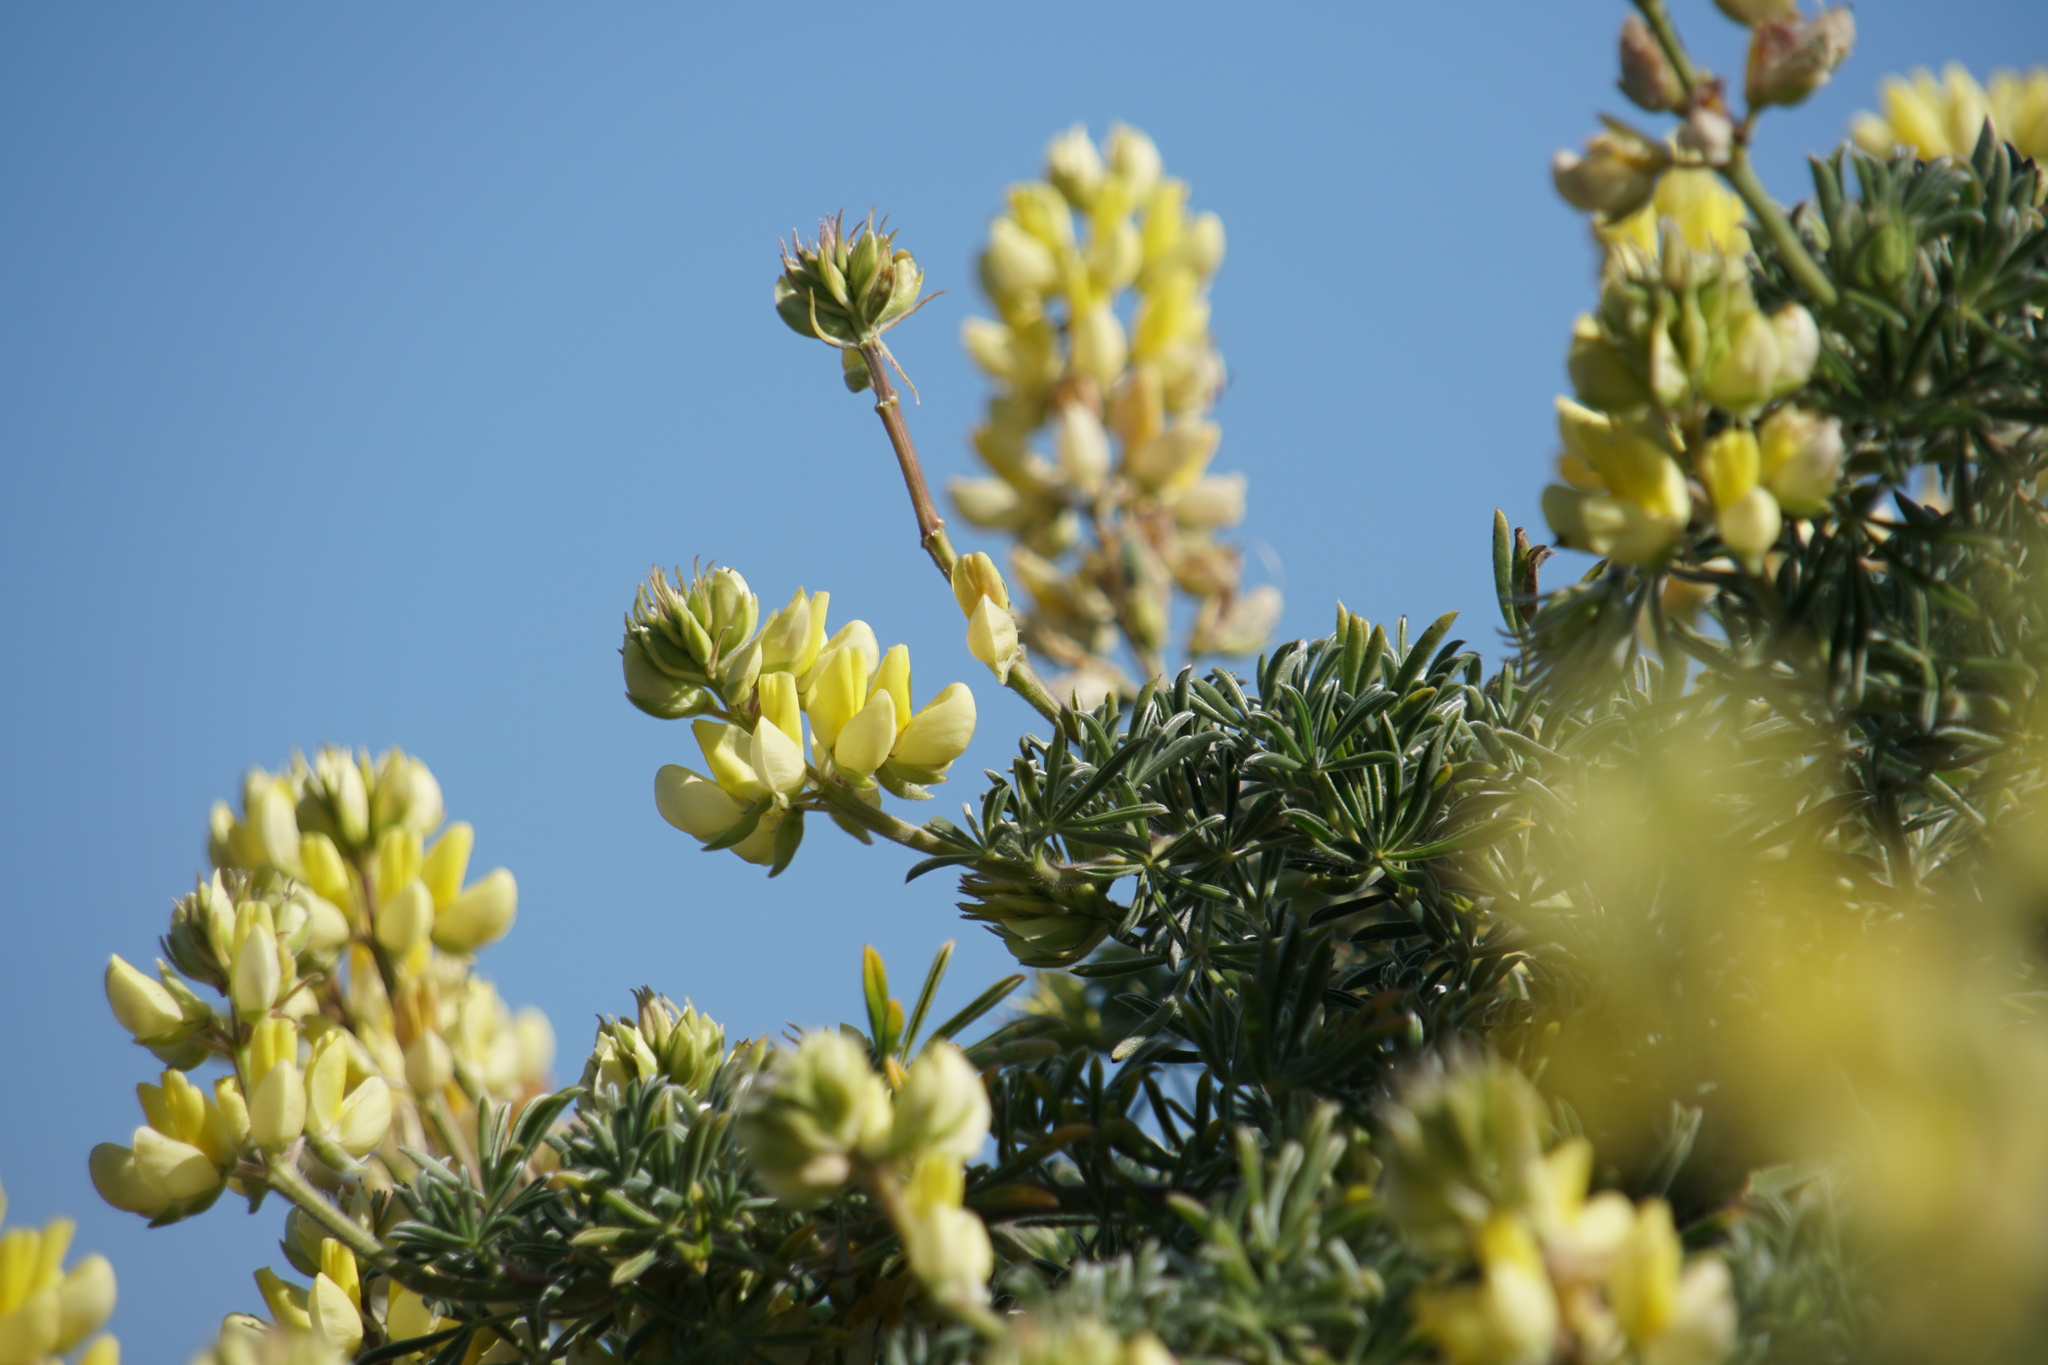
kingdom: Plantae
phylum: Tracheophyta
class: Magnoliopsida
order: Fabales
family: Fabaceae
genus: Lupinus
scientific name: Lupinus arboreus
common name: Yellow bush lupine
